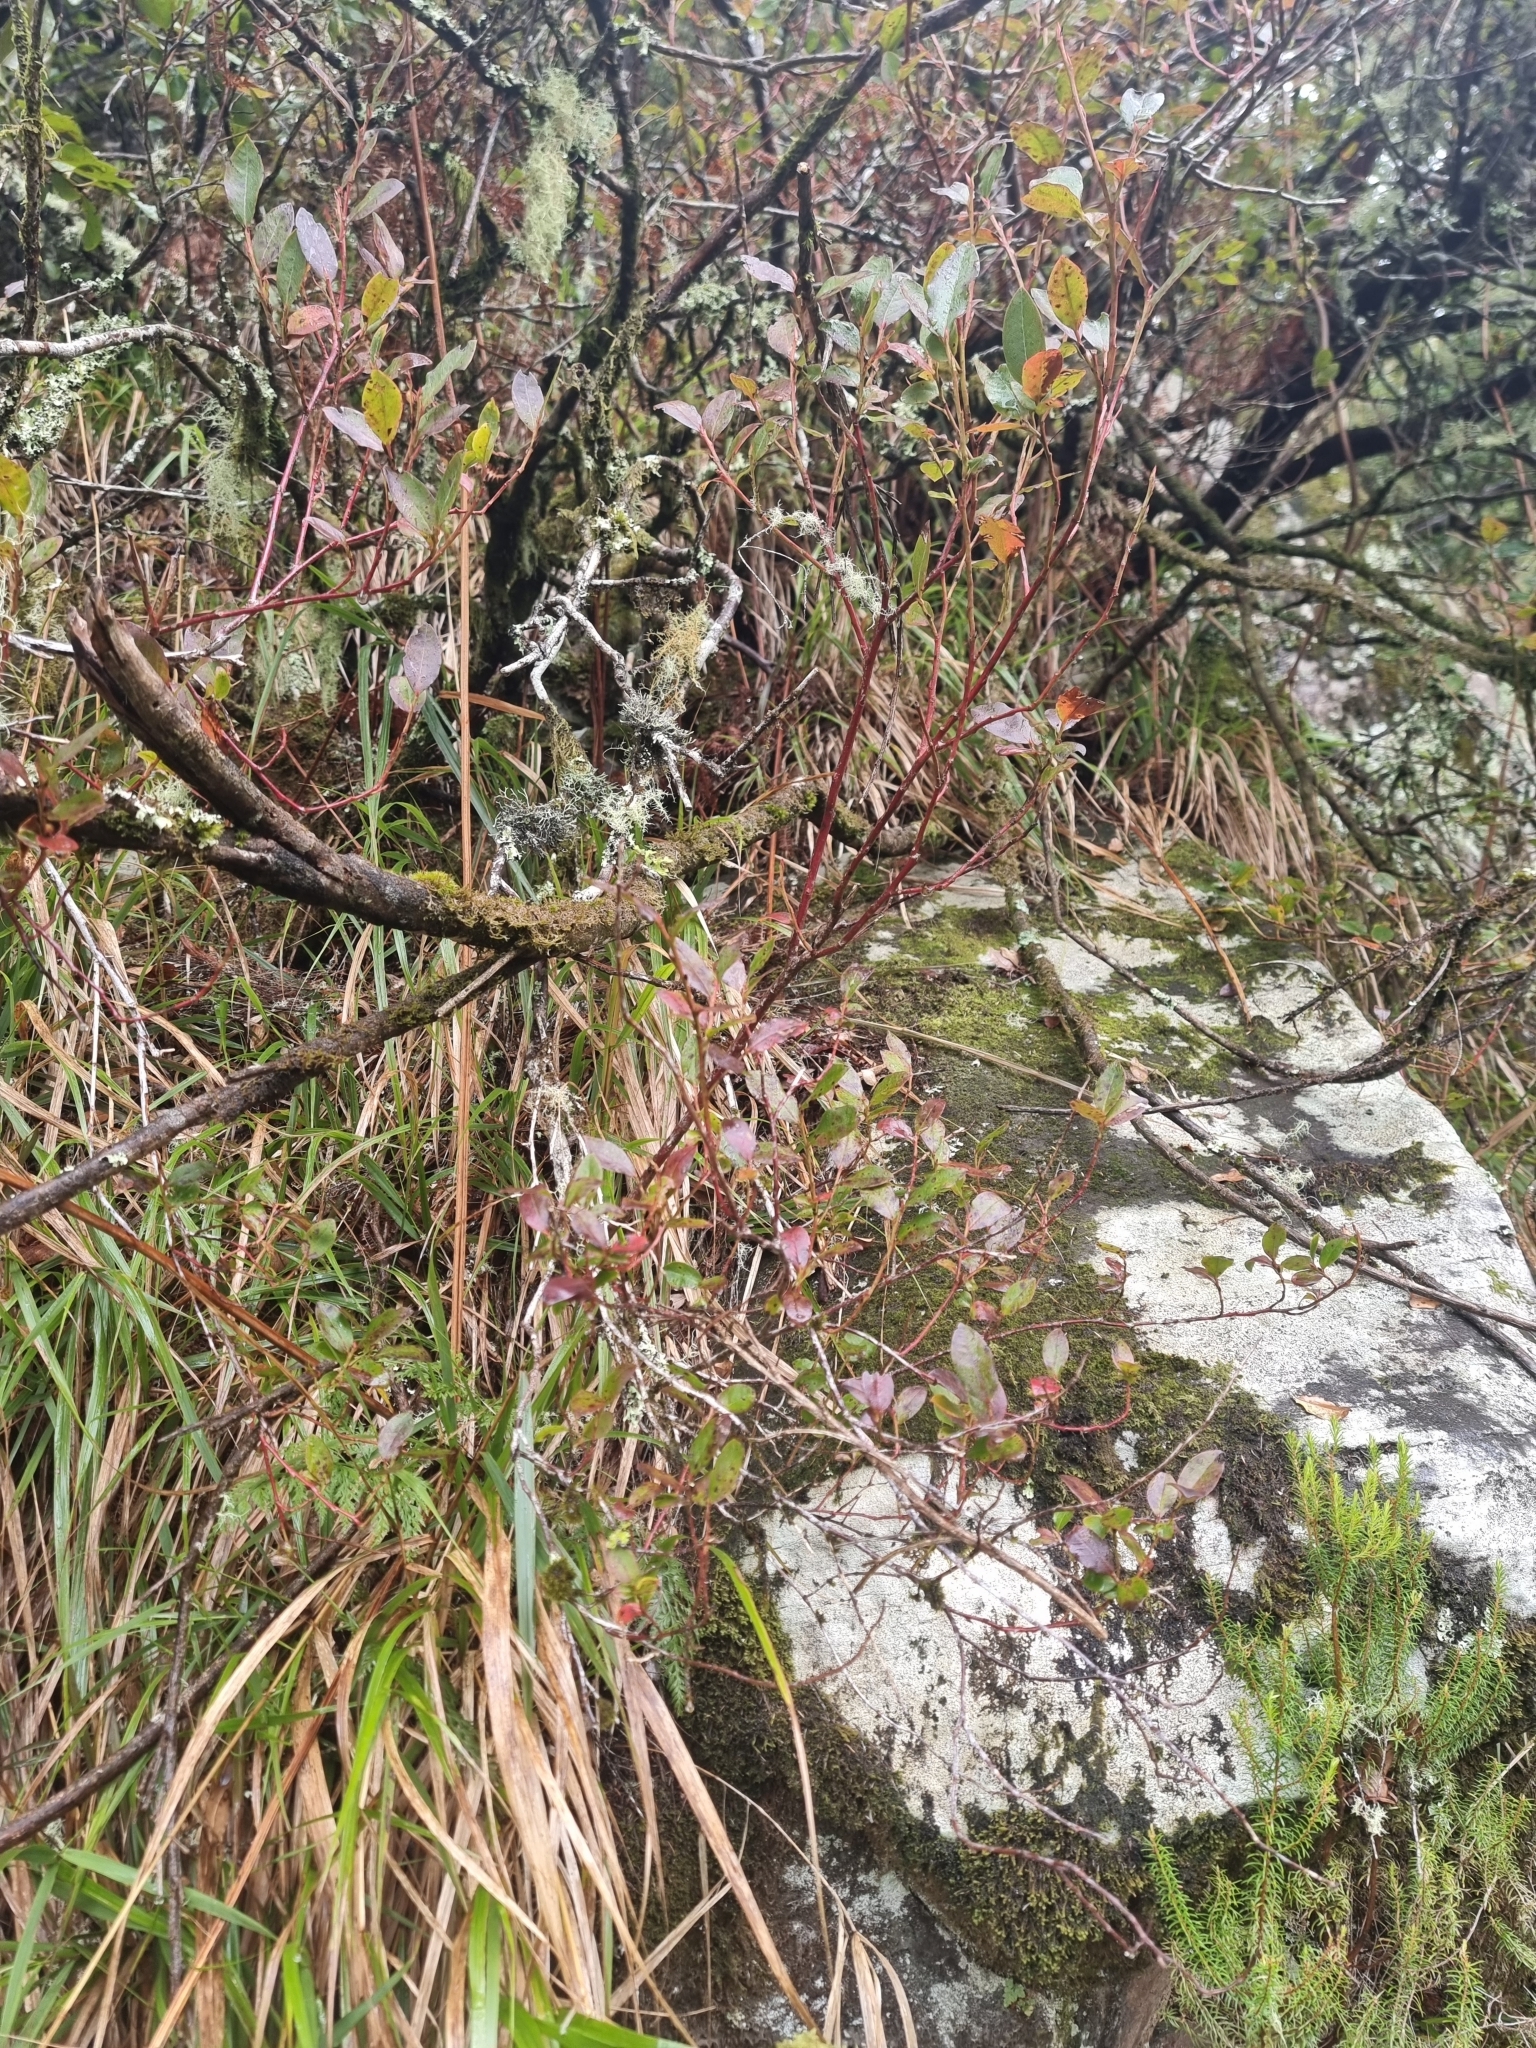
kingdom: Plantae
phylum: Tracheophyta
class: Magnoliopsida
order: Ericales
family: Ericaceae
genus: Vaccinium
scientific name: Vaccinium padifolium
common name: Madeiran blueberry
